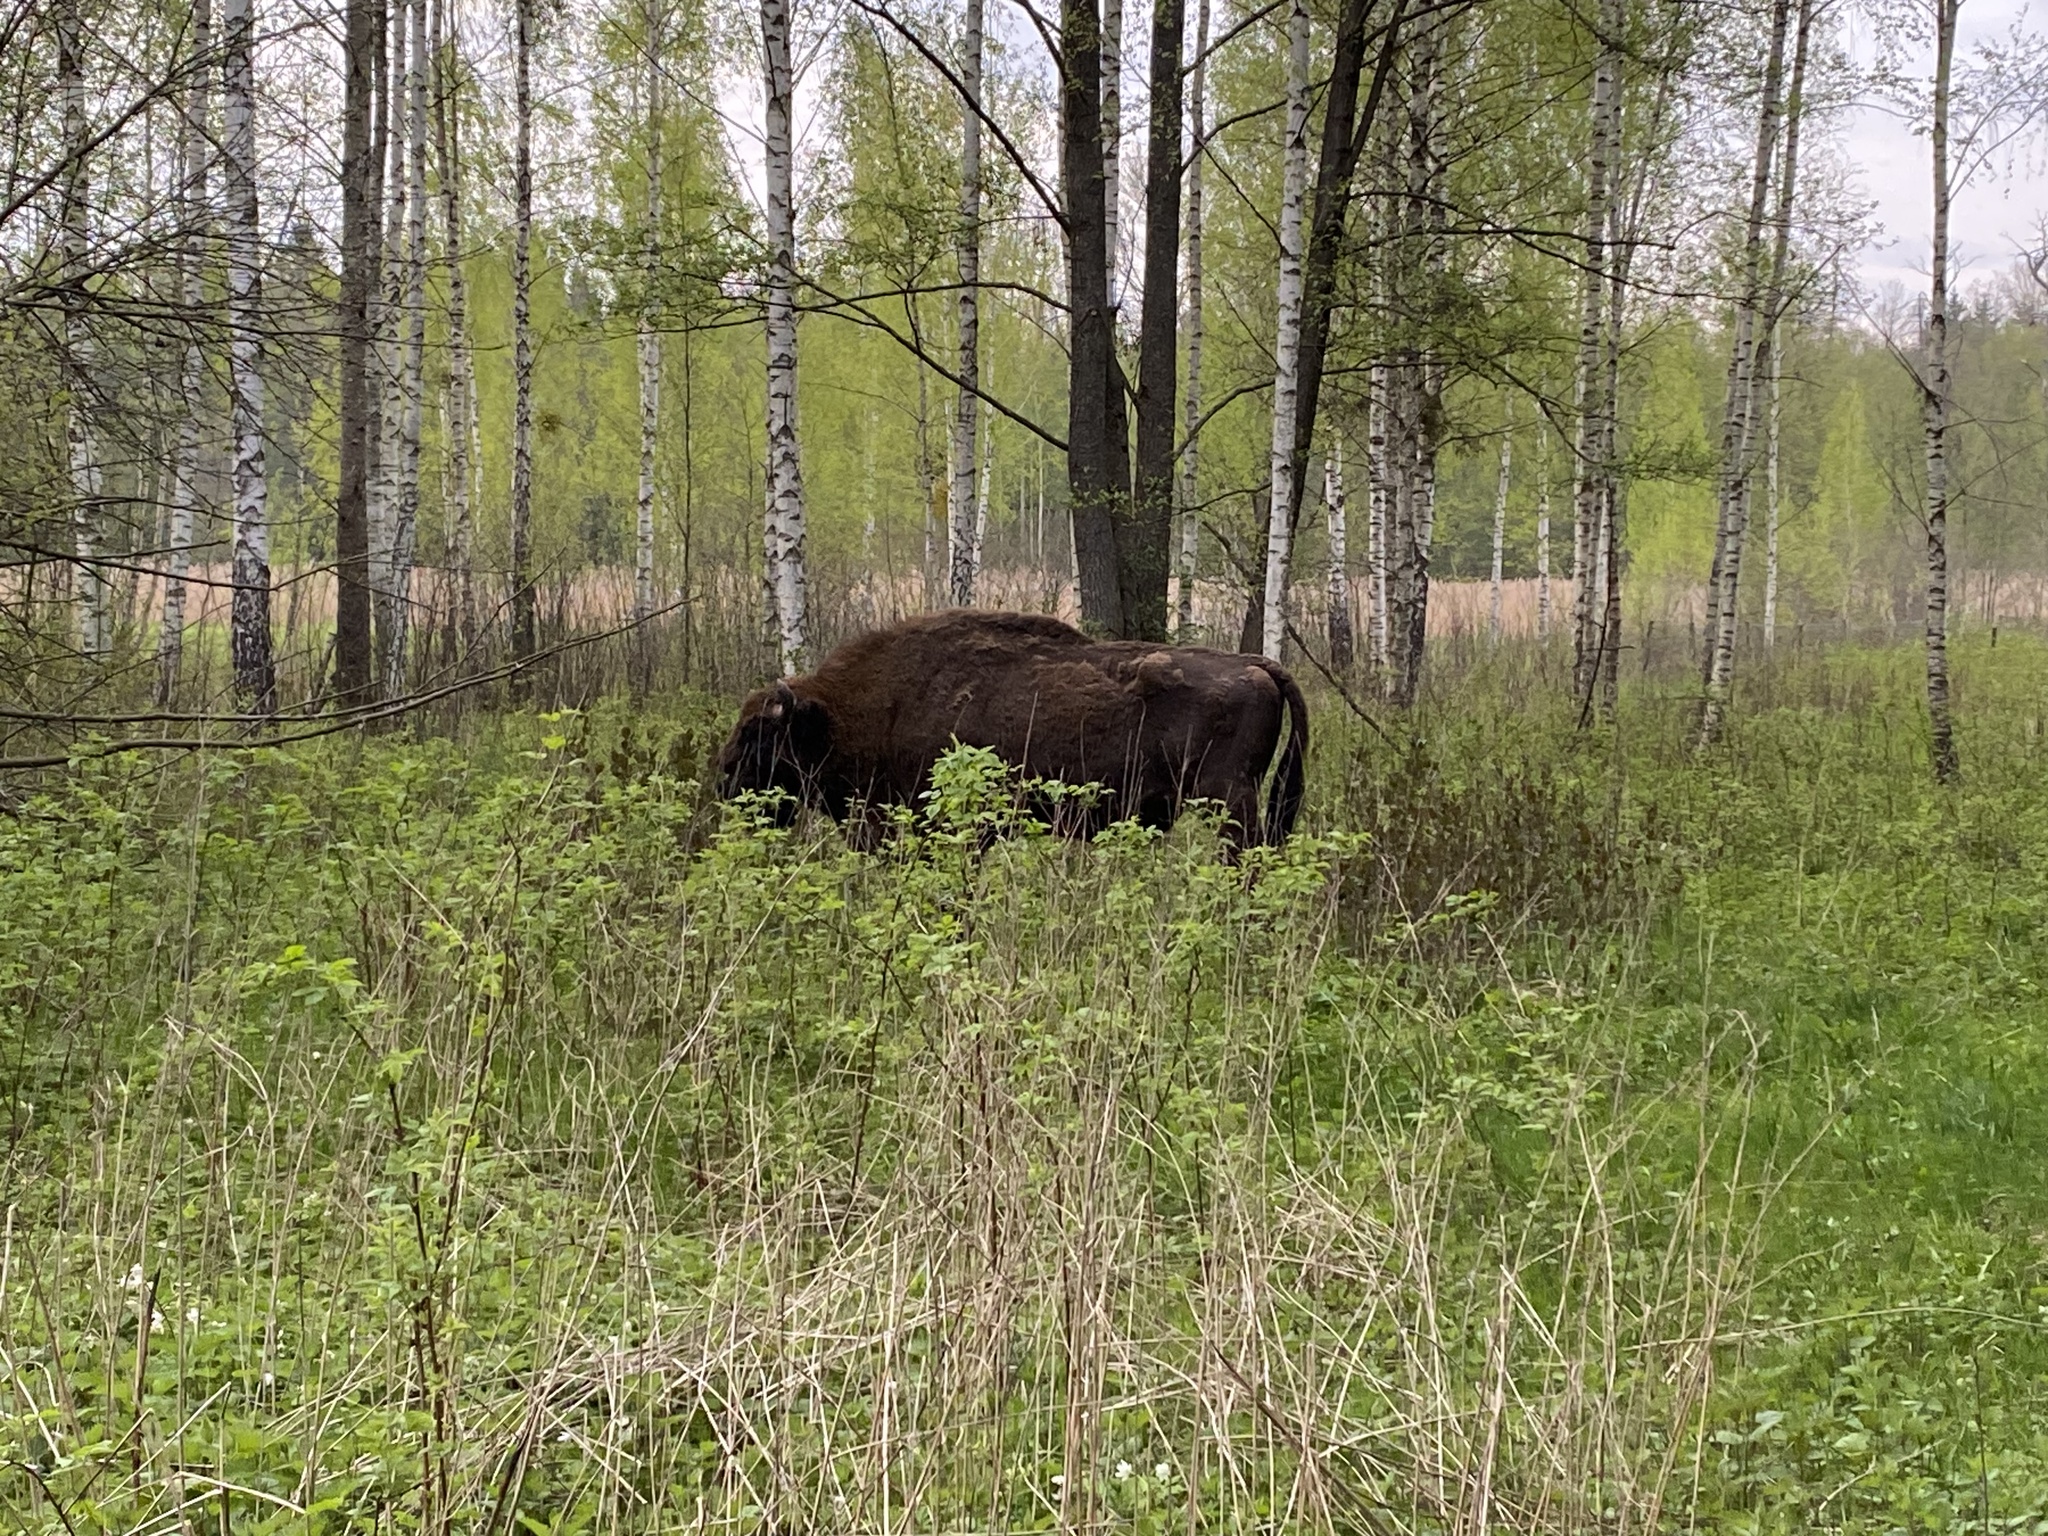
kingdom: Animalia
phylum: Chordata
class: Mammalia
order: Artiodactyla
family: Bovidae
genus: Bison
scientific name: Bison bonasus
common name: European bison
